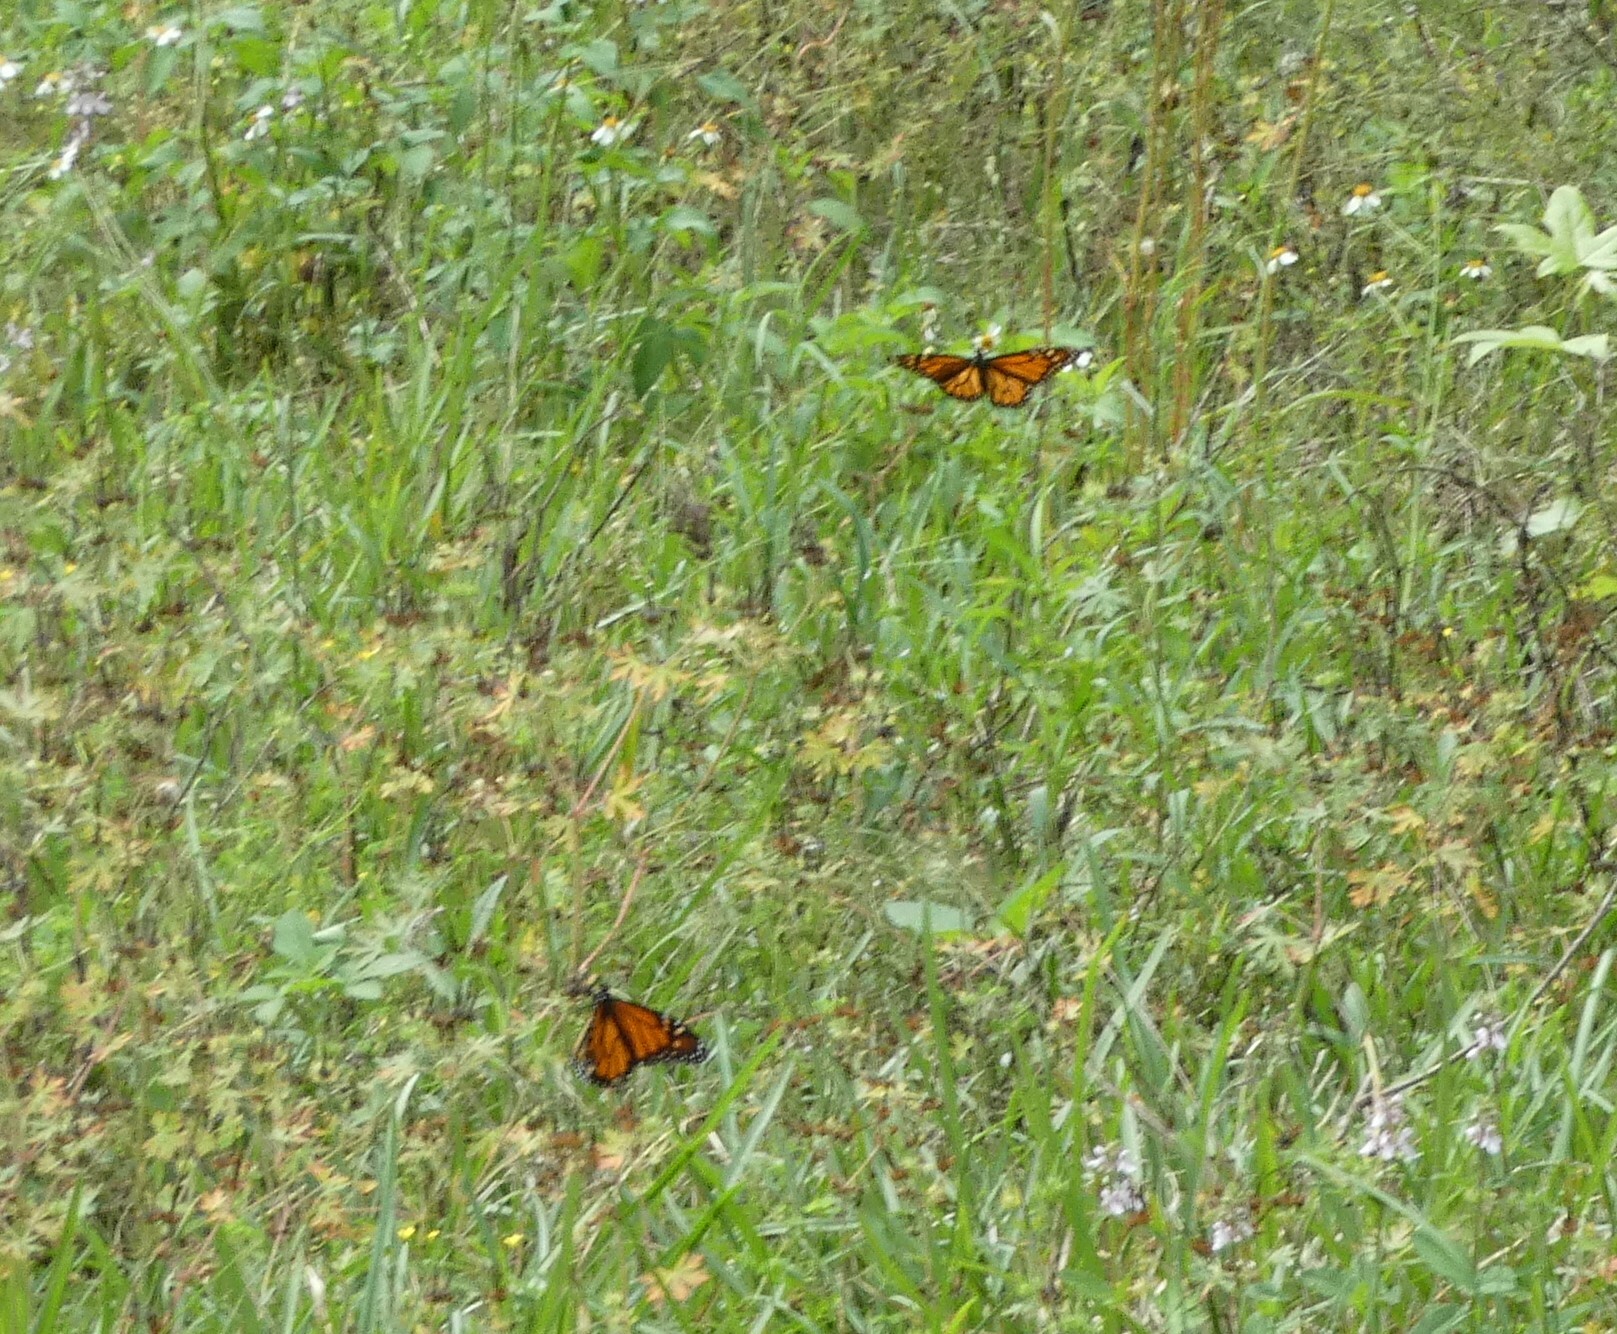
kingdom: Animalia
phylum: Arthropoda
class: Insecta
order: Lepidoptera
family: Nymphalidae
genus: Danaus
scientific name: Danaus plexippus
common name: Monarch
